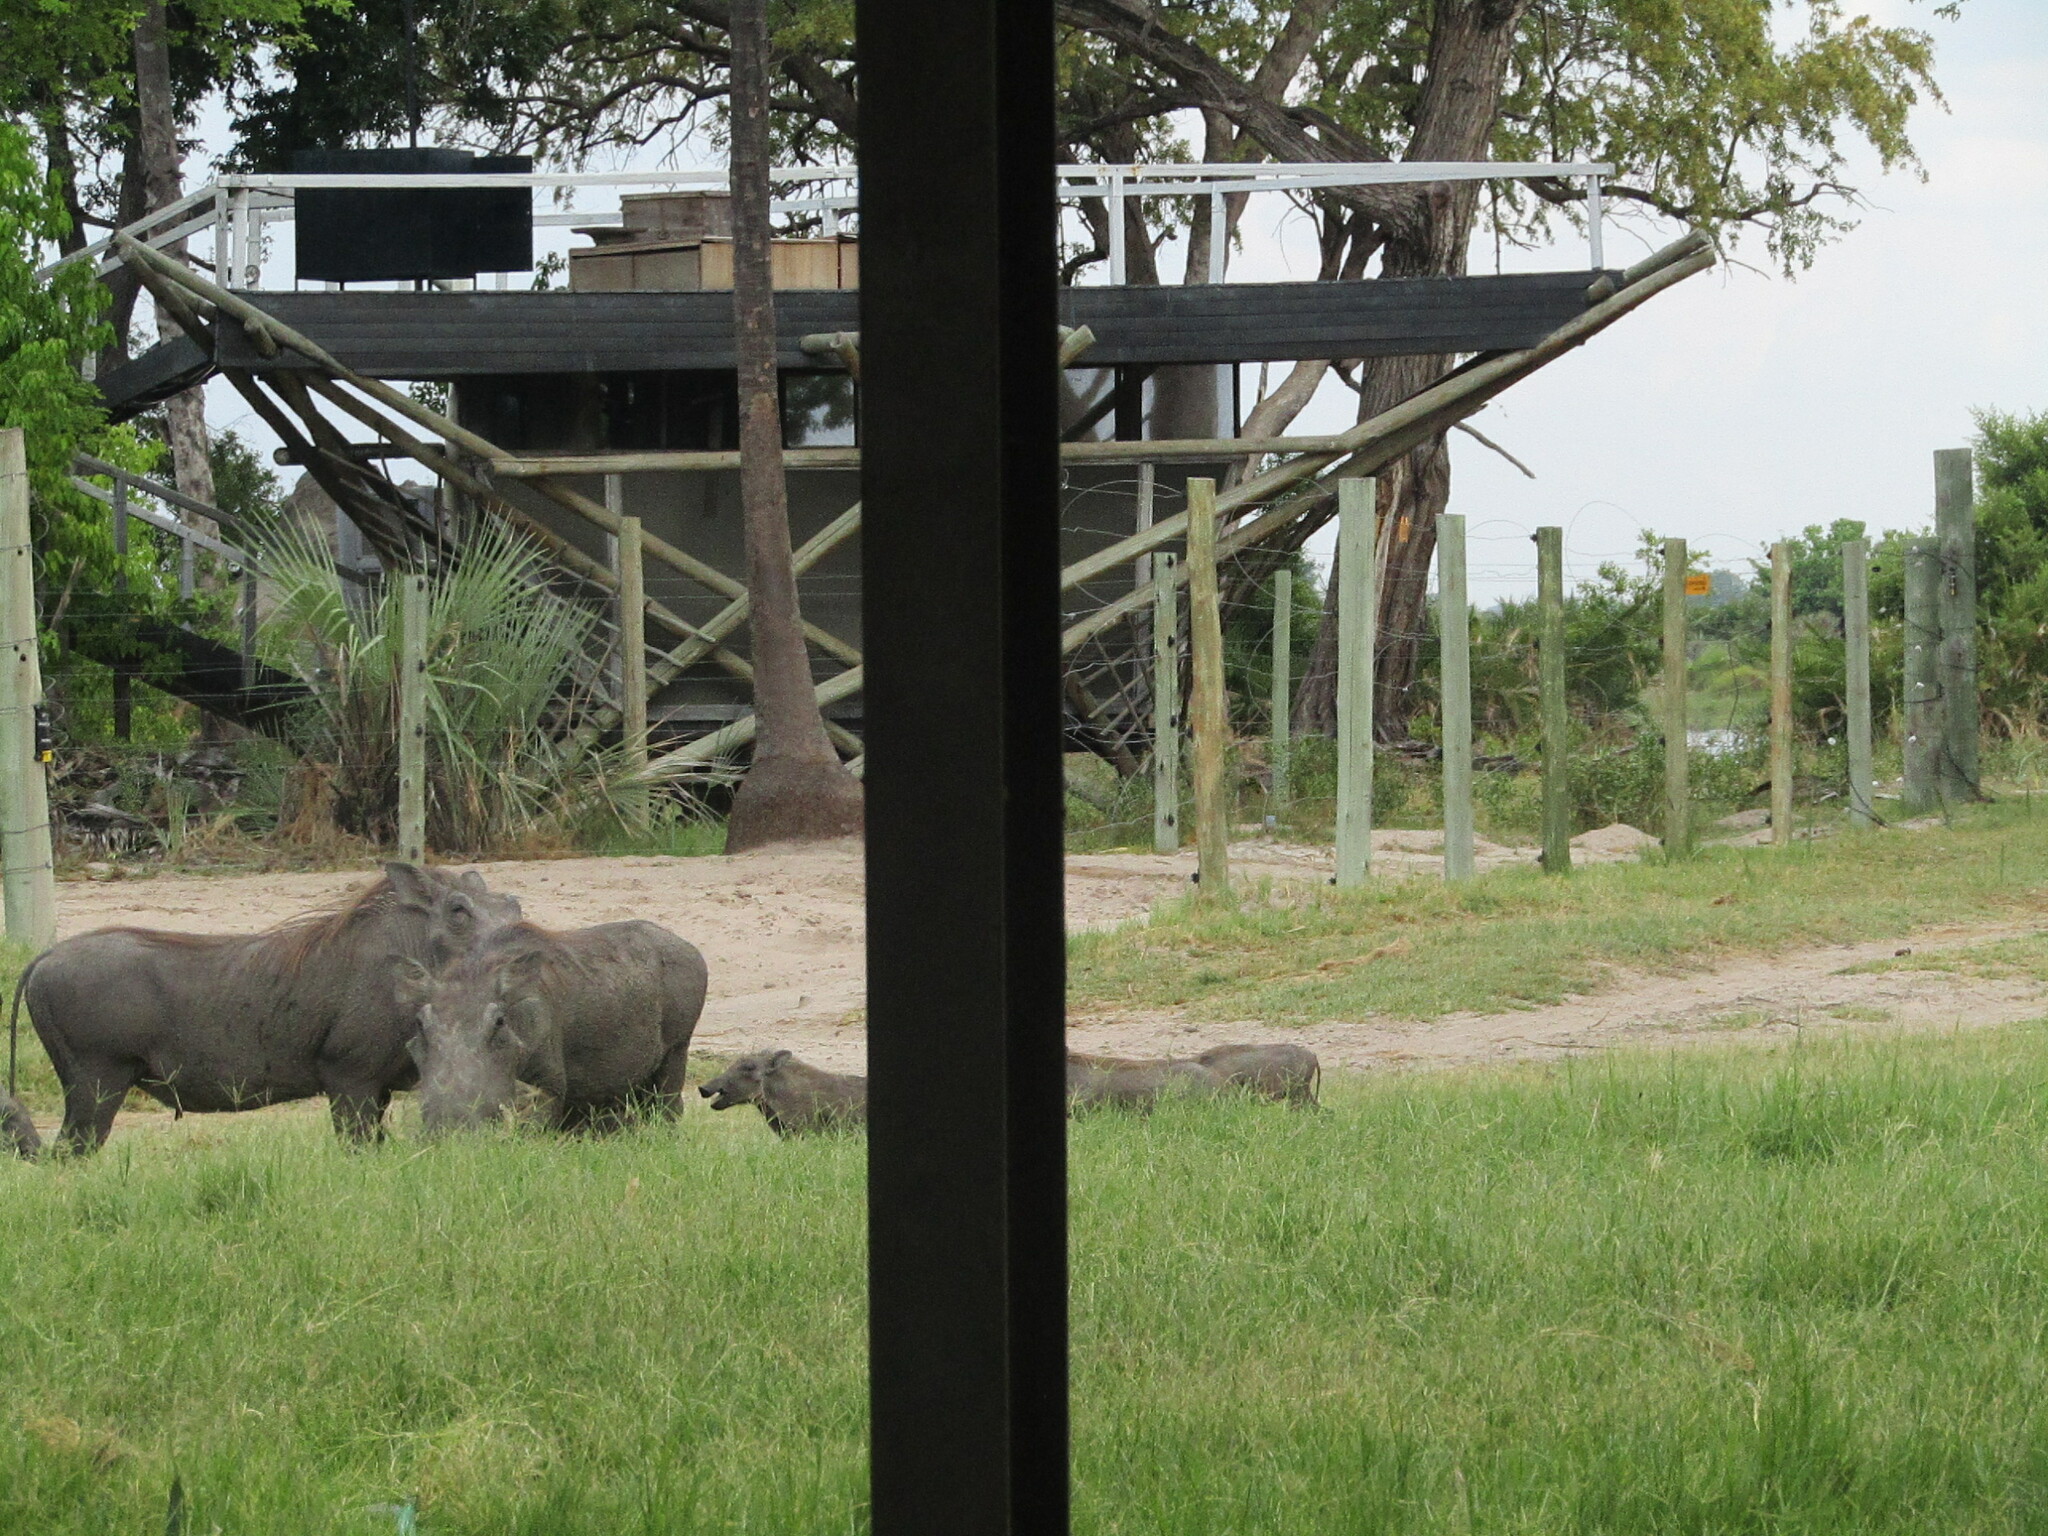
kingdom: Animalia
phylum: Chordata
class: Mammalia
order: Artiodactyla
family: Suidae
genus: Phacochoerus
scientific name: Phacochoerus africanus
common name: Common warthog
